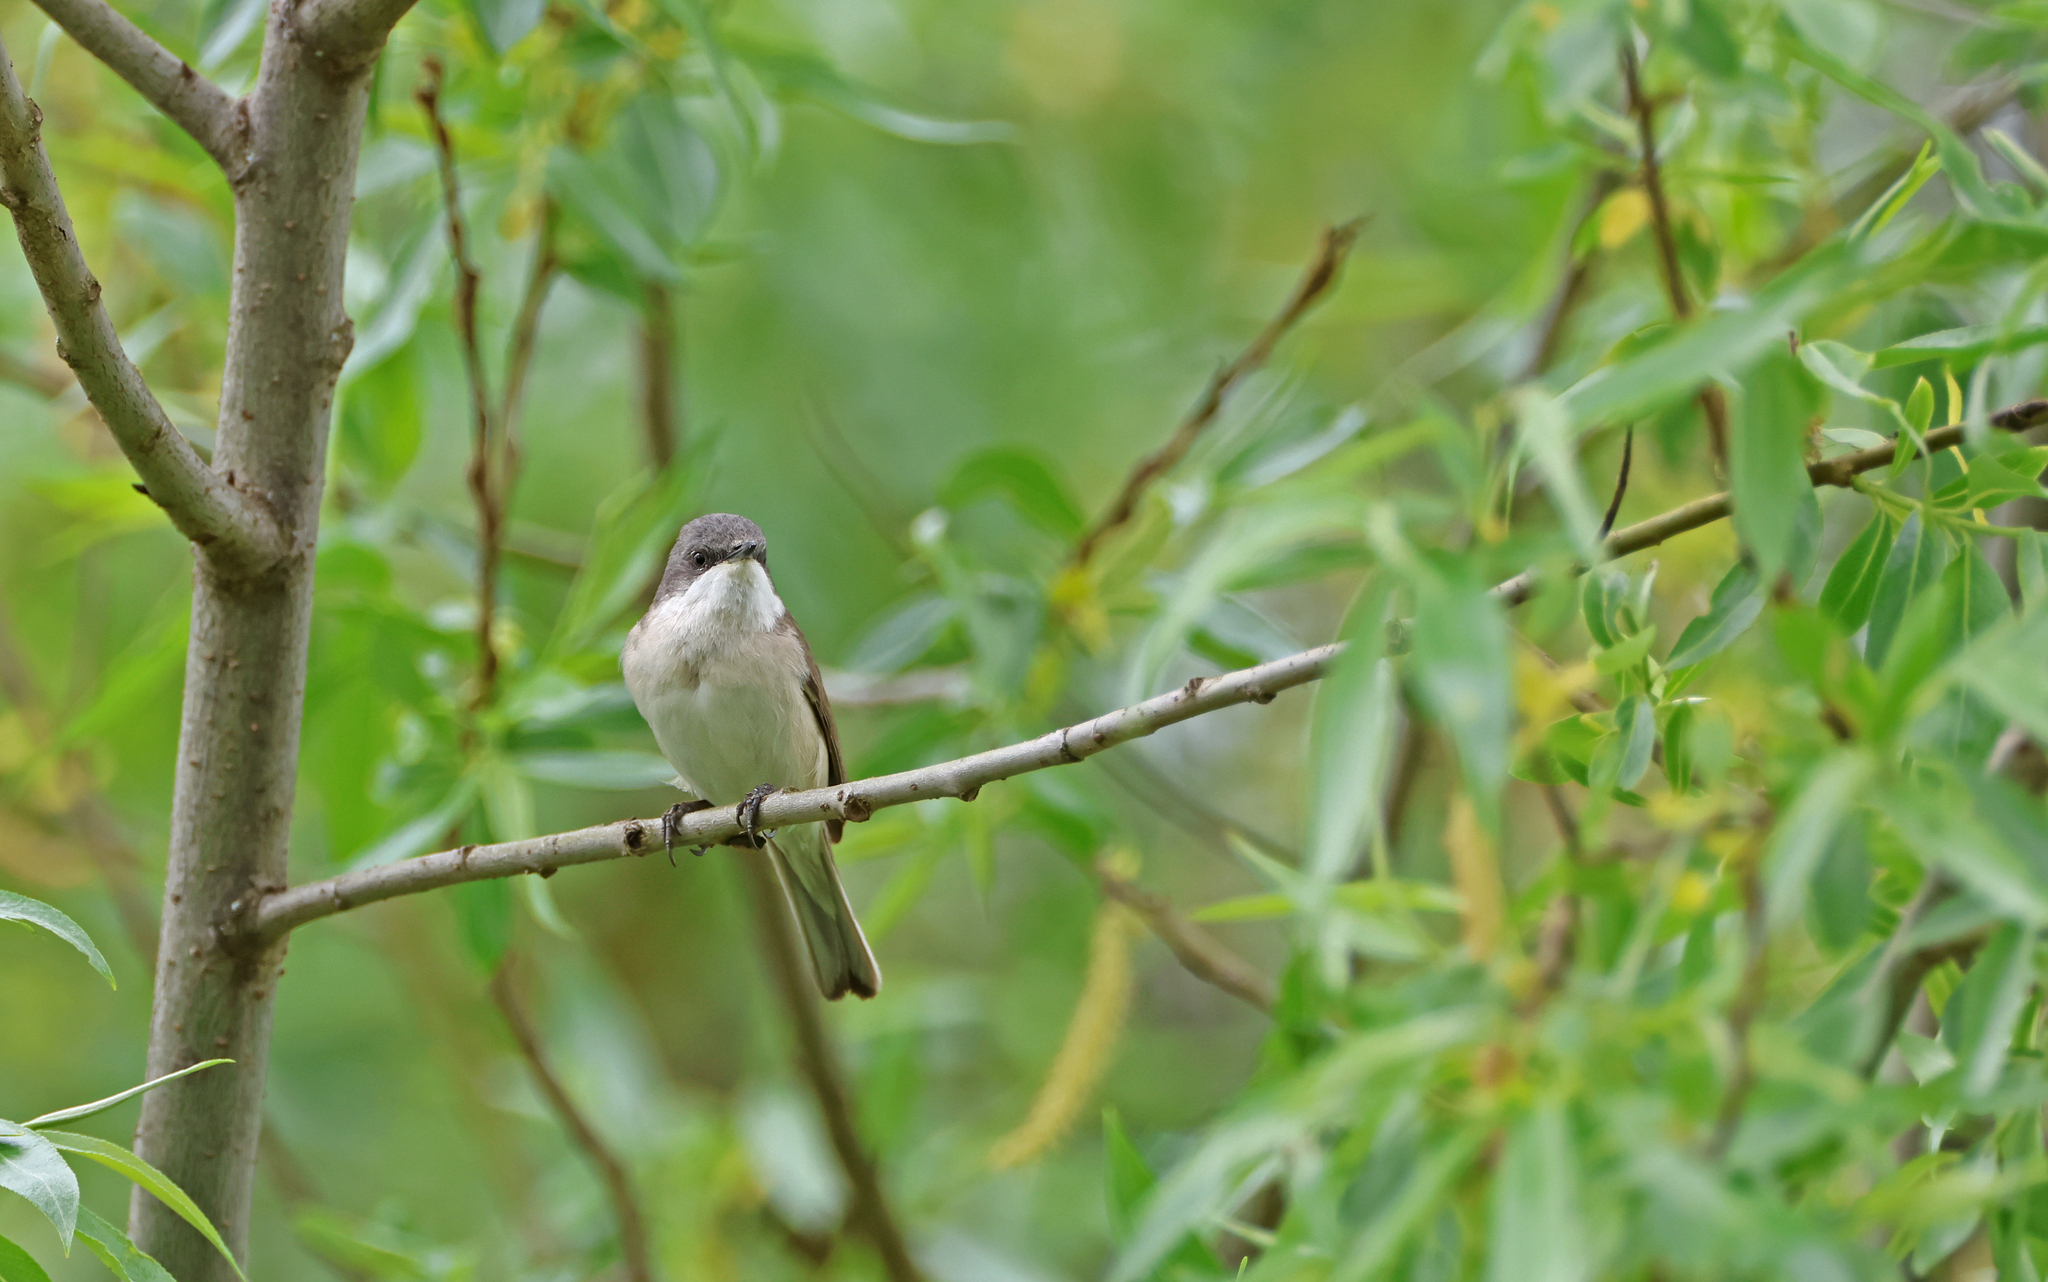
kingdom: Animalia
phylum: Chordata
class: Aves
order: Passeriformes
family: Sylviidae
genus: Sylvia
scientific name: Sylvia curruca
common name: Lesser whitethroat
